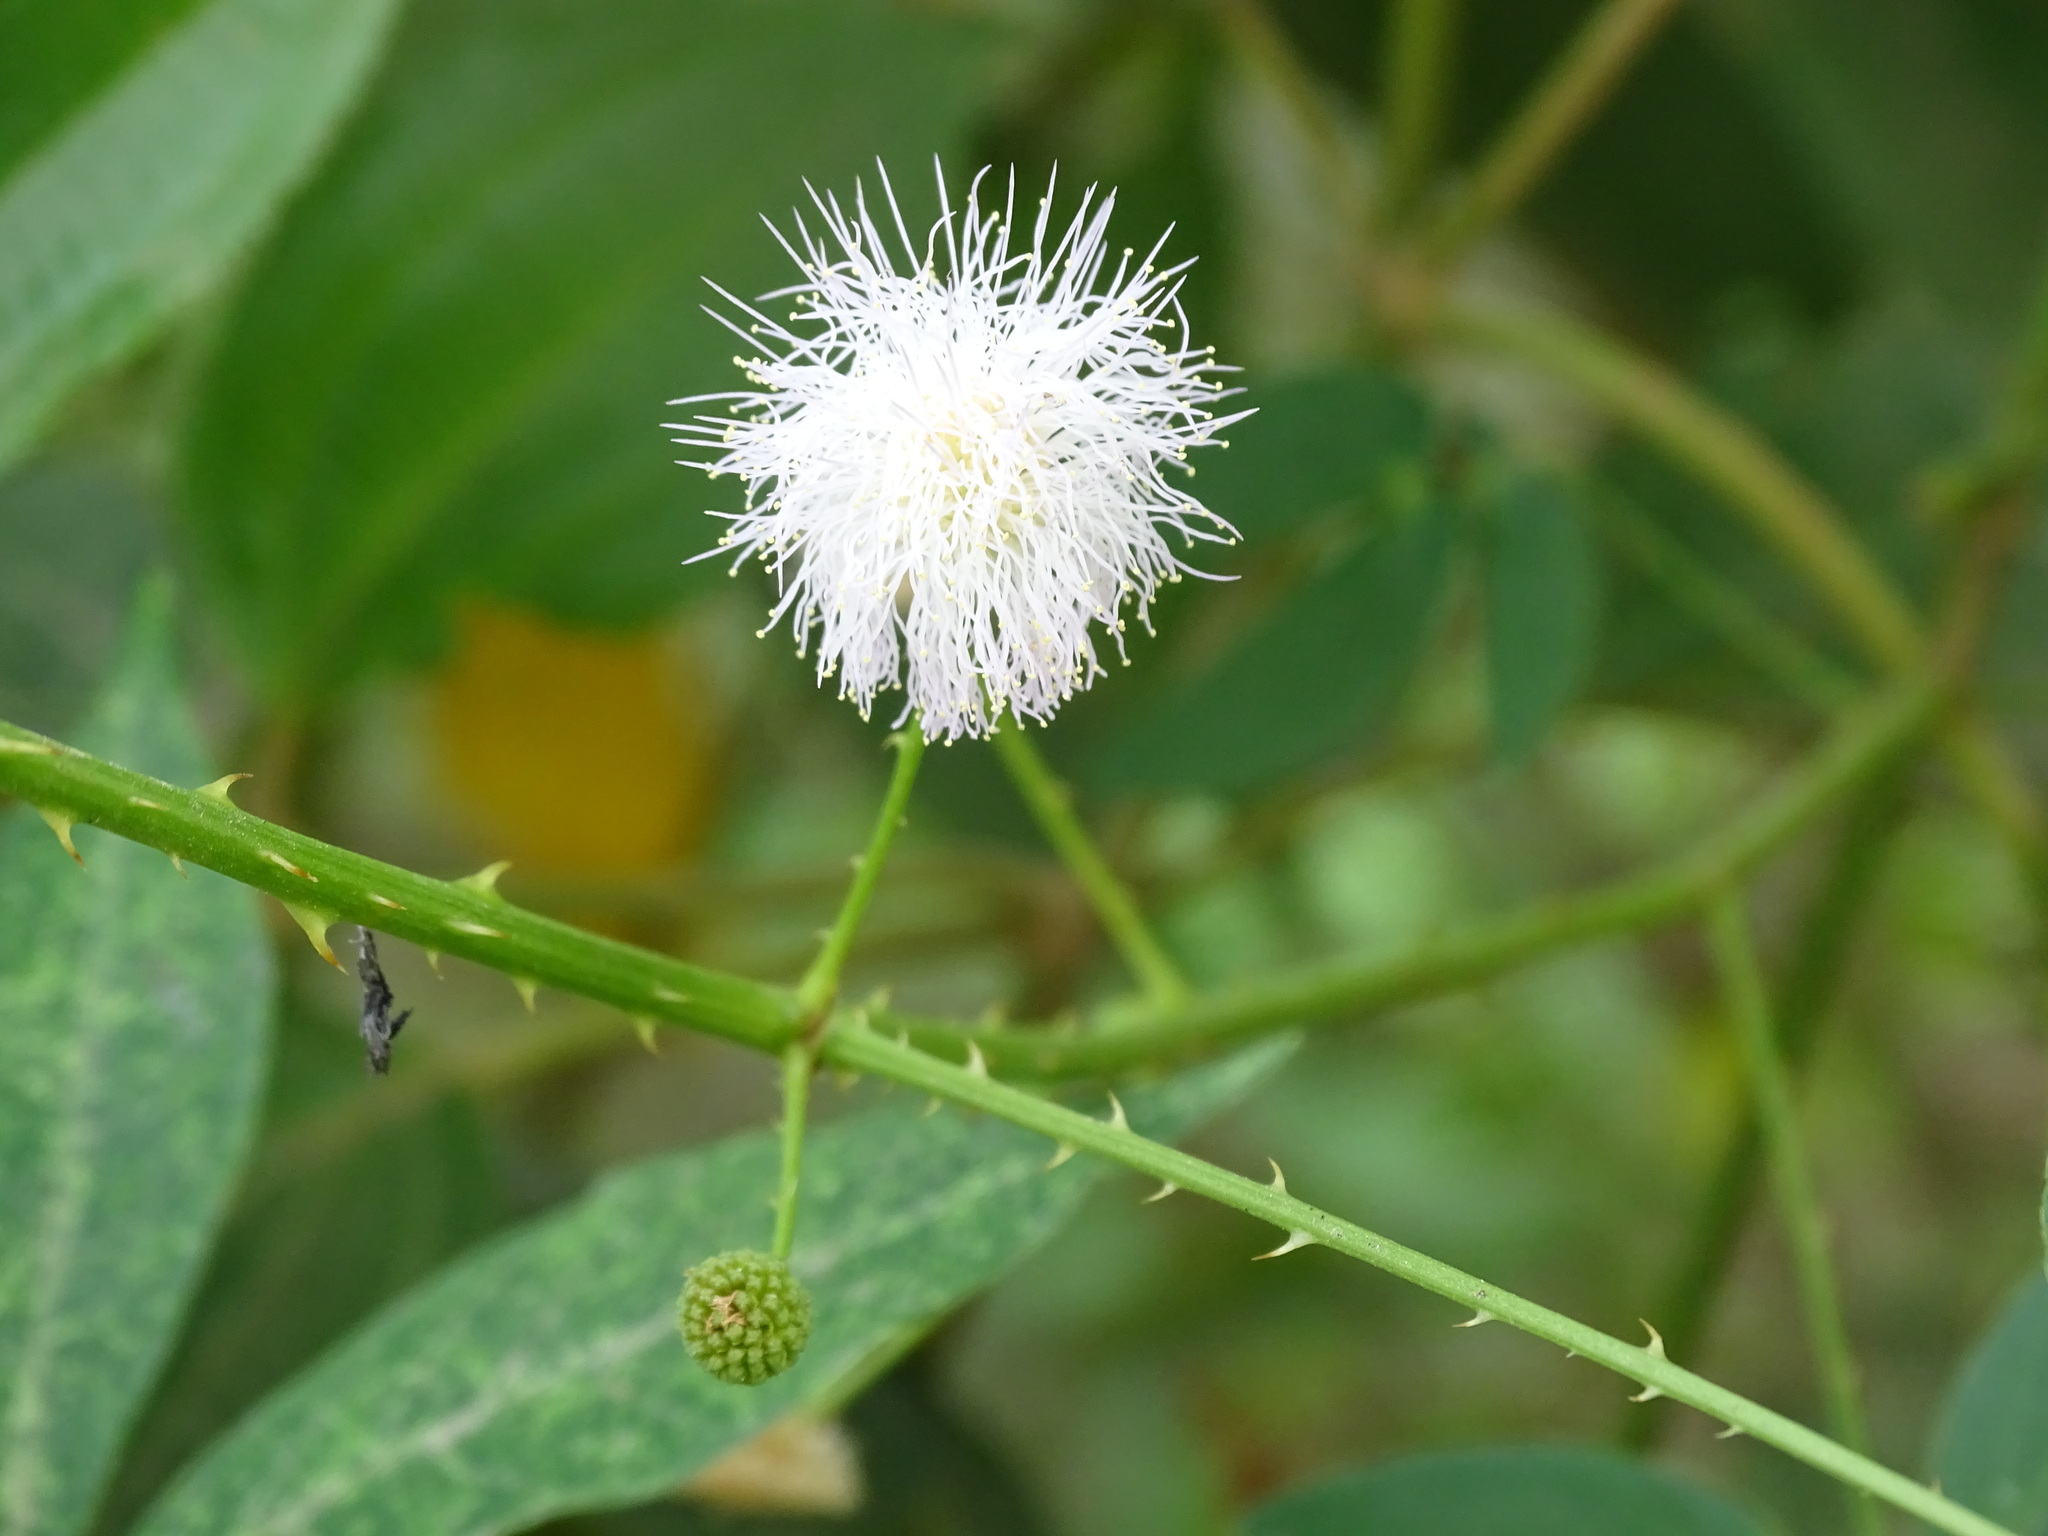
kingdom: Plantae
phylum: Tracheophyta
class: Magnoliopsida
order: Fabales
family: Fabaceae
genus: Mimosa
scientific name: Mimosa albida
